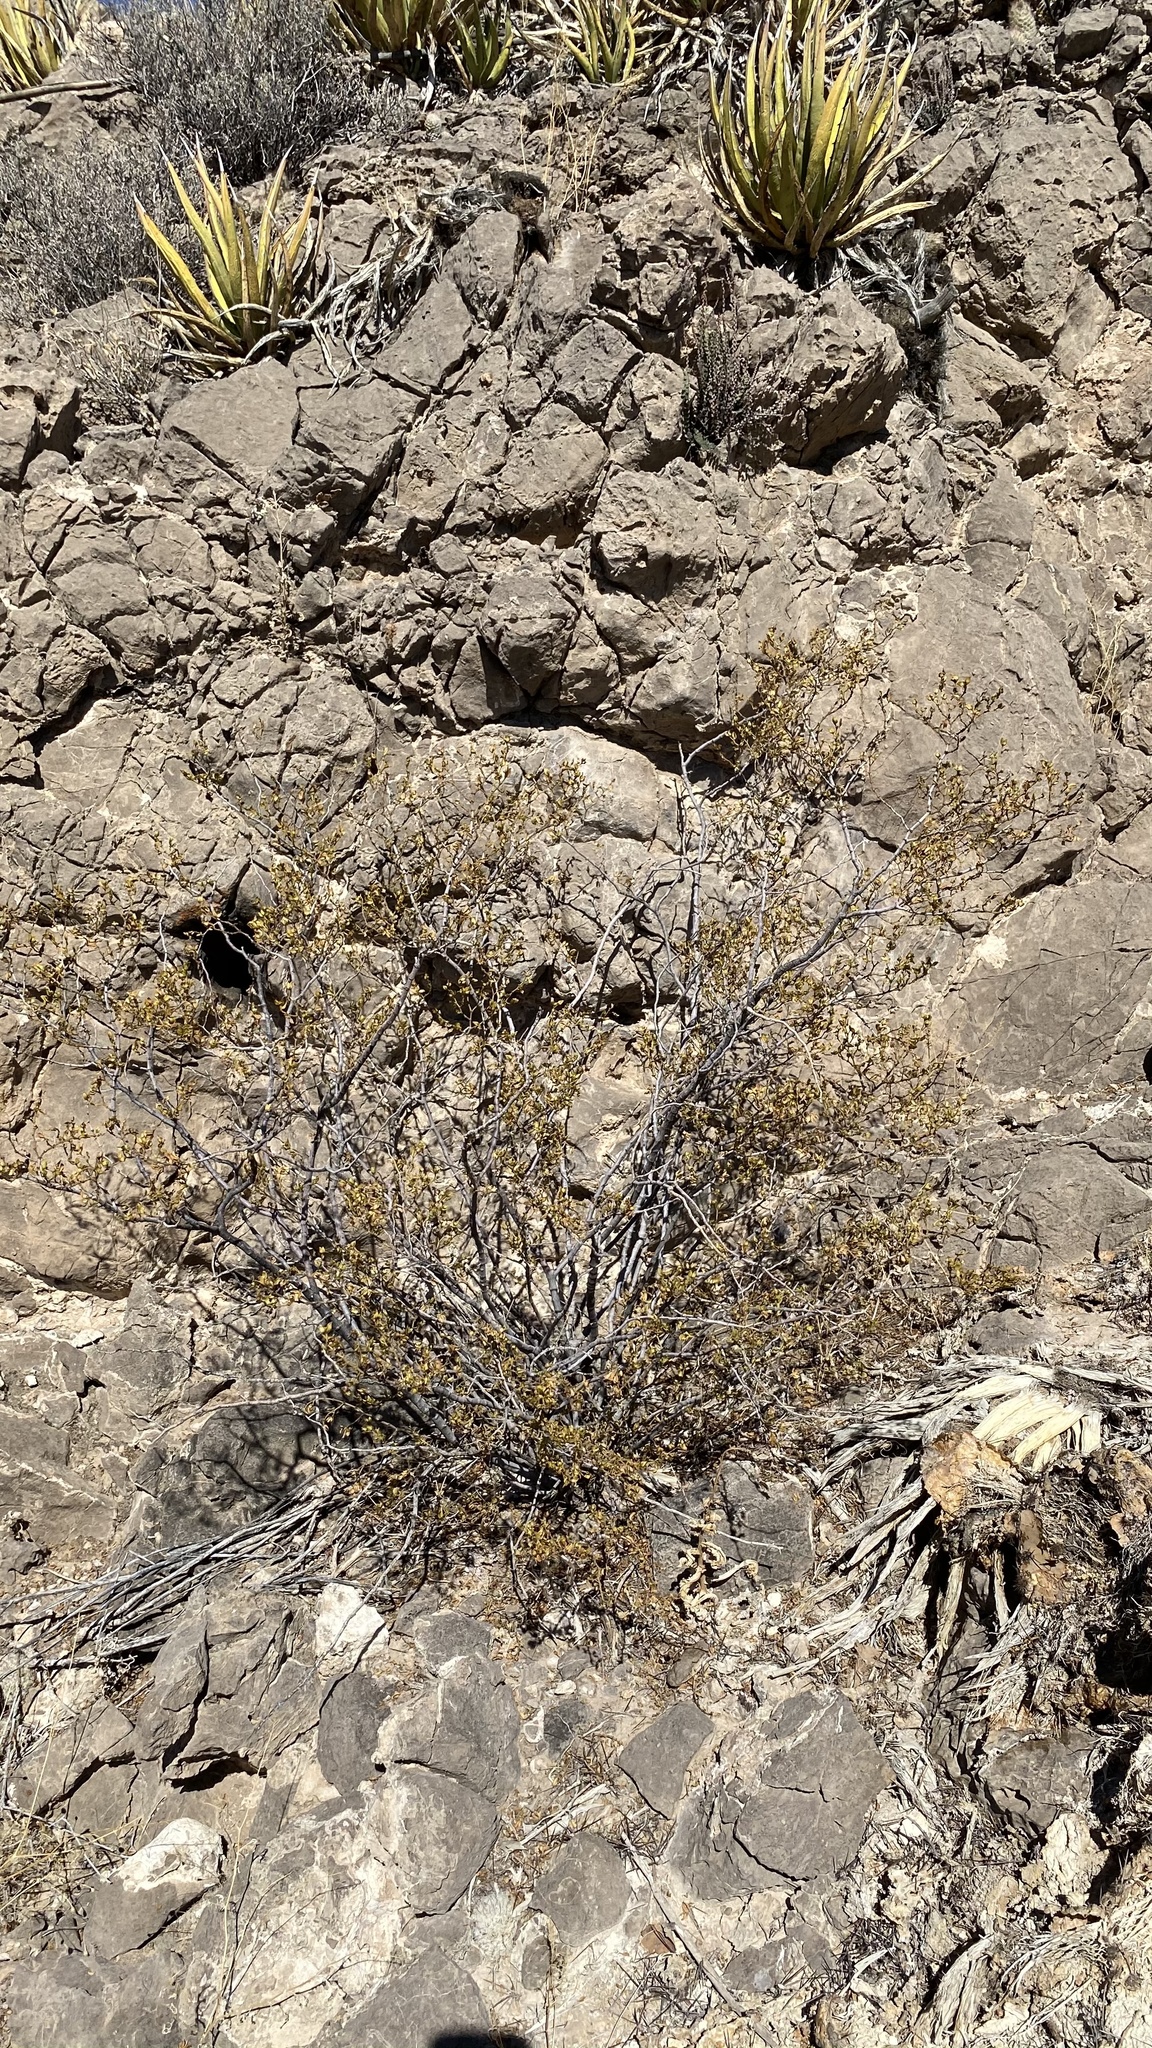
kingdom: Plantae
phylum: Tracheophyta
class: Magnoliopsida
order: Zygophyllales
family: Zygophyllaceae
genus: Larrea
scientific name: Larrea tridentata
